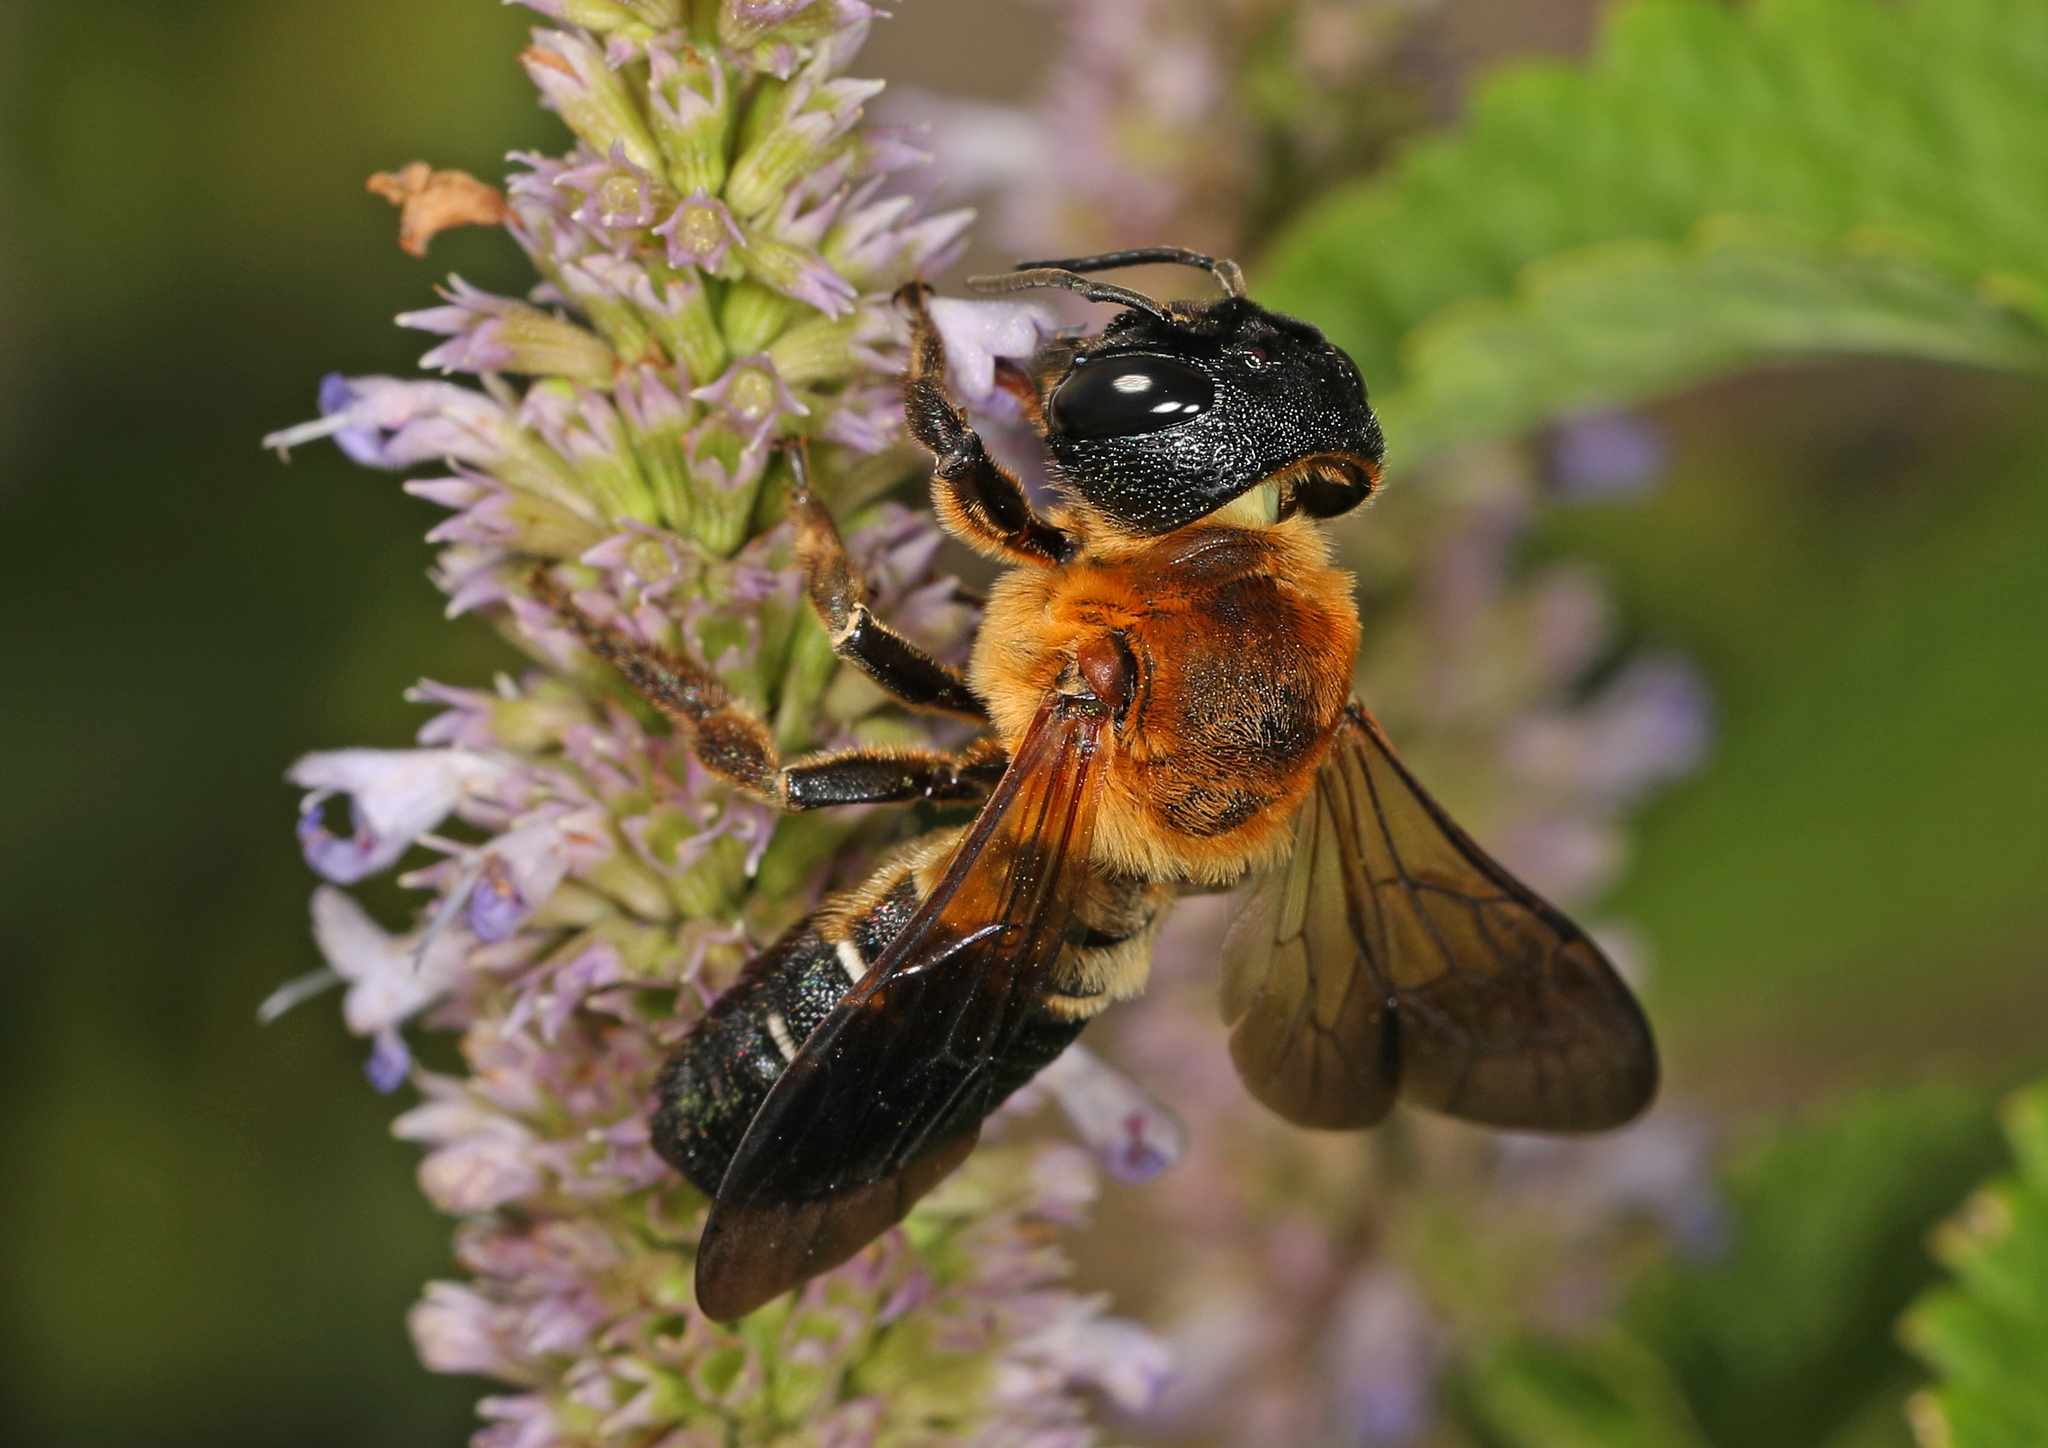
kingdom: Animalia
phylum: Arthropoda
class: Insecta
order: Hymenoptera
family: Megachilidae
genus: Megachile
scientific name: Megachile sculpturalis
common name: Sculptured resin bee
